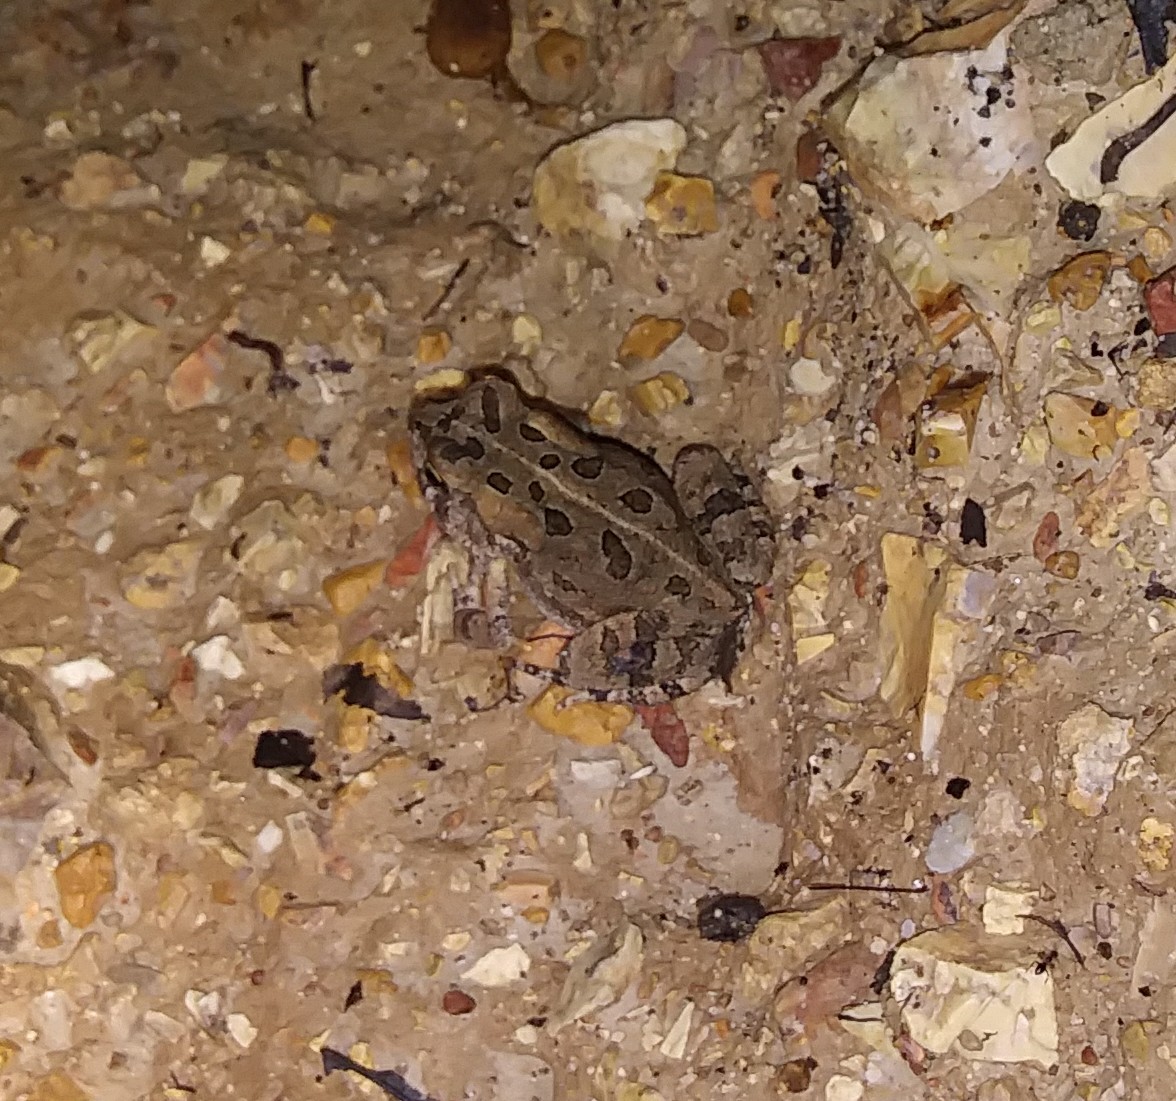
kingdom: Animalia
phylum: Chordata
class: Amphibia
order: Anura
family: Bufonidae
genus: Anaxyrus
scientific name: Anaxyrus fowleri
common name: Fowler's toad
